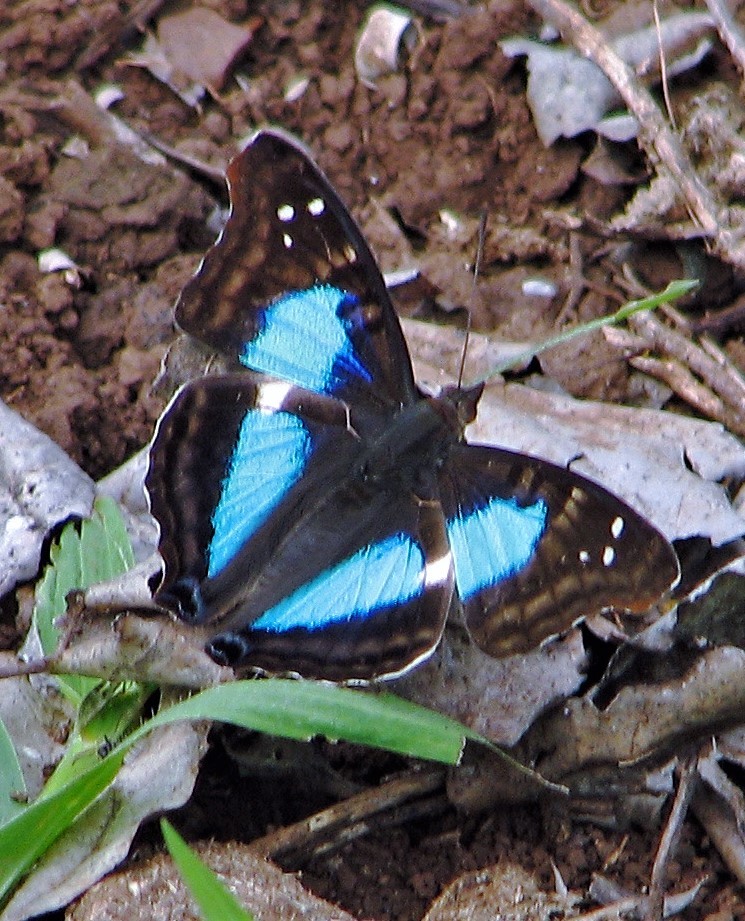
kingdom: Animalia
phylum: Arthropoda
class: Insecta
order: Lepidoptera
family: Nymphalidae
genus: Doxocopa
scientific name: Doxocopa laurentia
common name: Turquoise emperor
